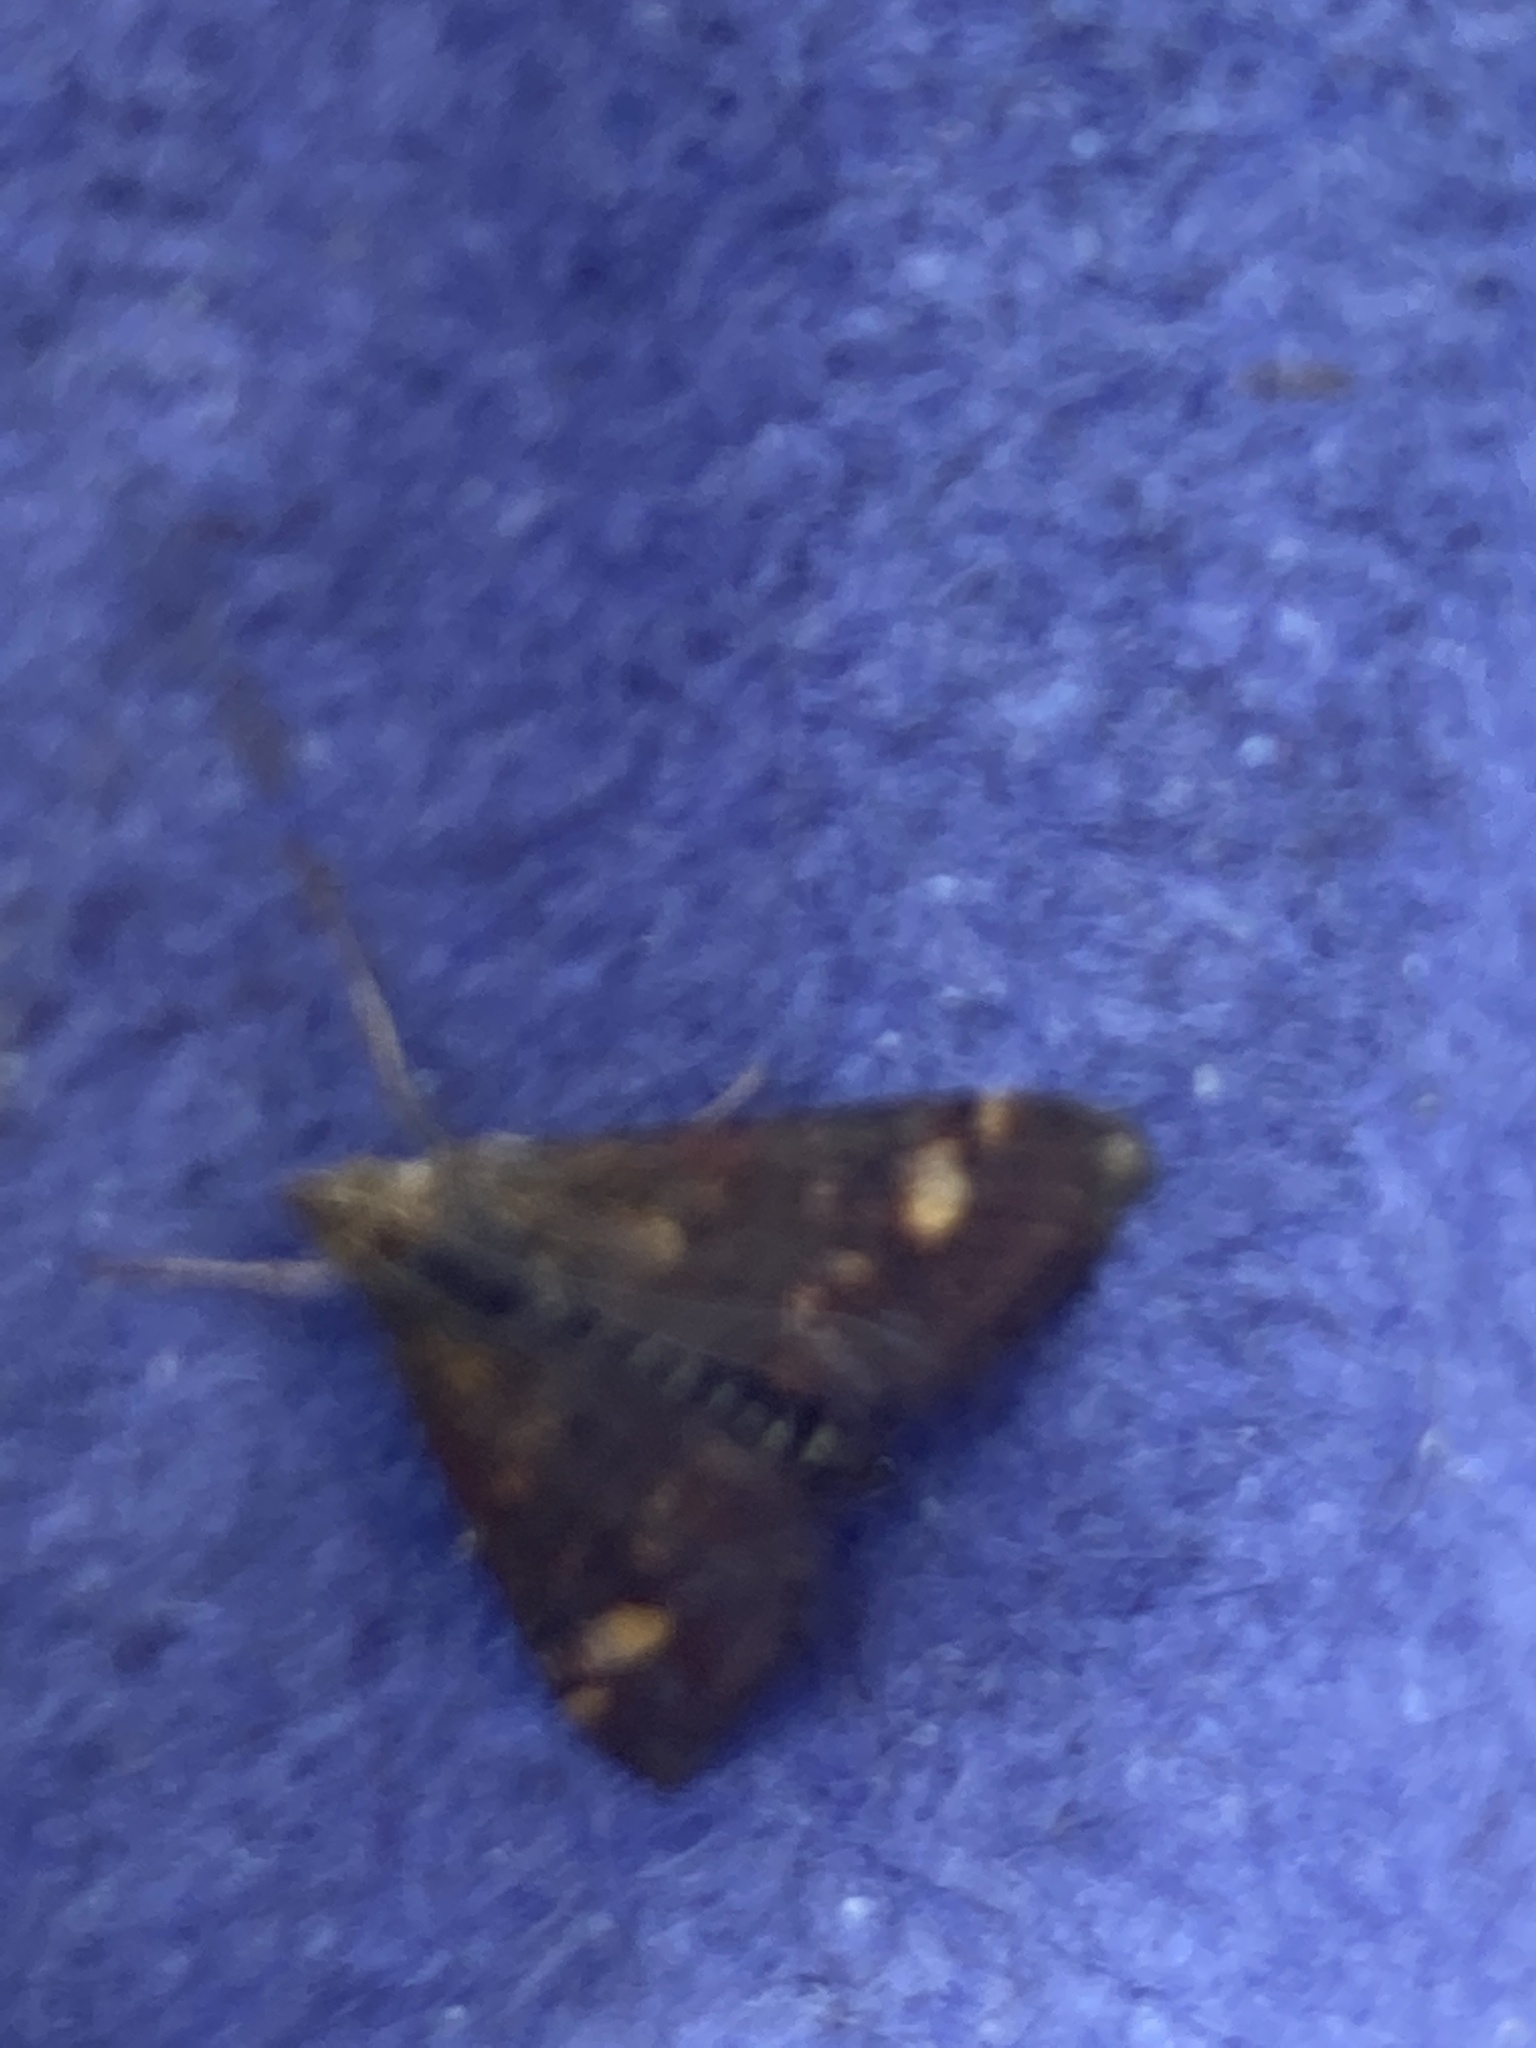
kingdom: Animalia
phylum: Arthropoda
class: Insecta
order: Lepidoptera
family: Crambidae
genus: Pyrausta
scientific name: Pyrausta aurata
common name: Small purple & gold
